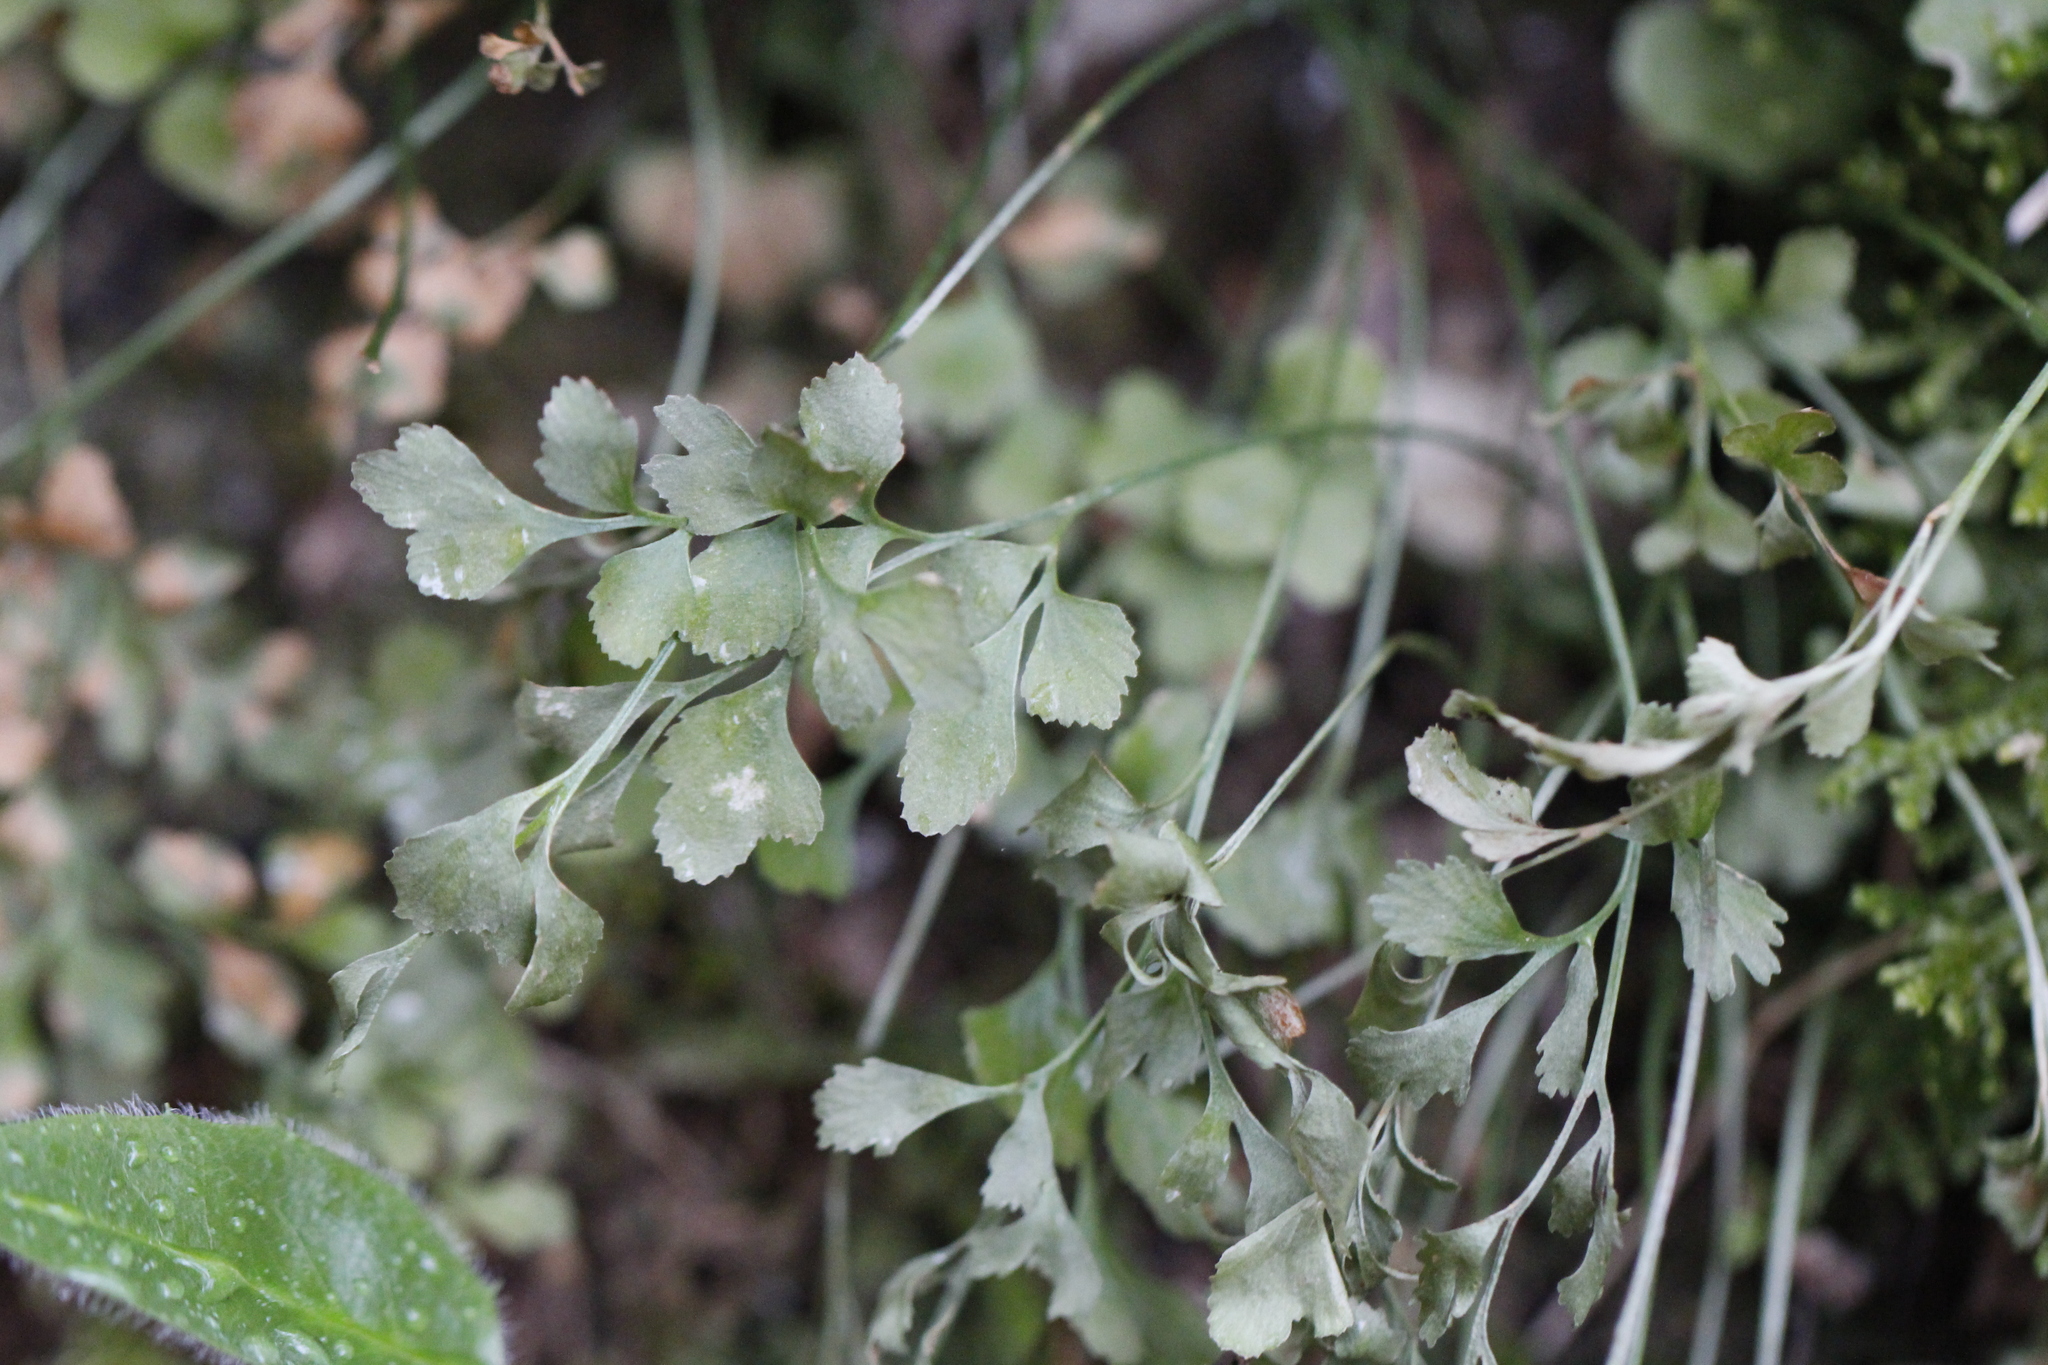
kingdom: Plantae
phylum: Tracheophyta
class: Polypodiopsida
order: Polypodiales
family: Aspleniaceae
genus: Asplenium
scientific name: Asplenium ruta-muraria
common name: Wall-rue
